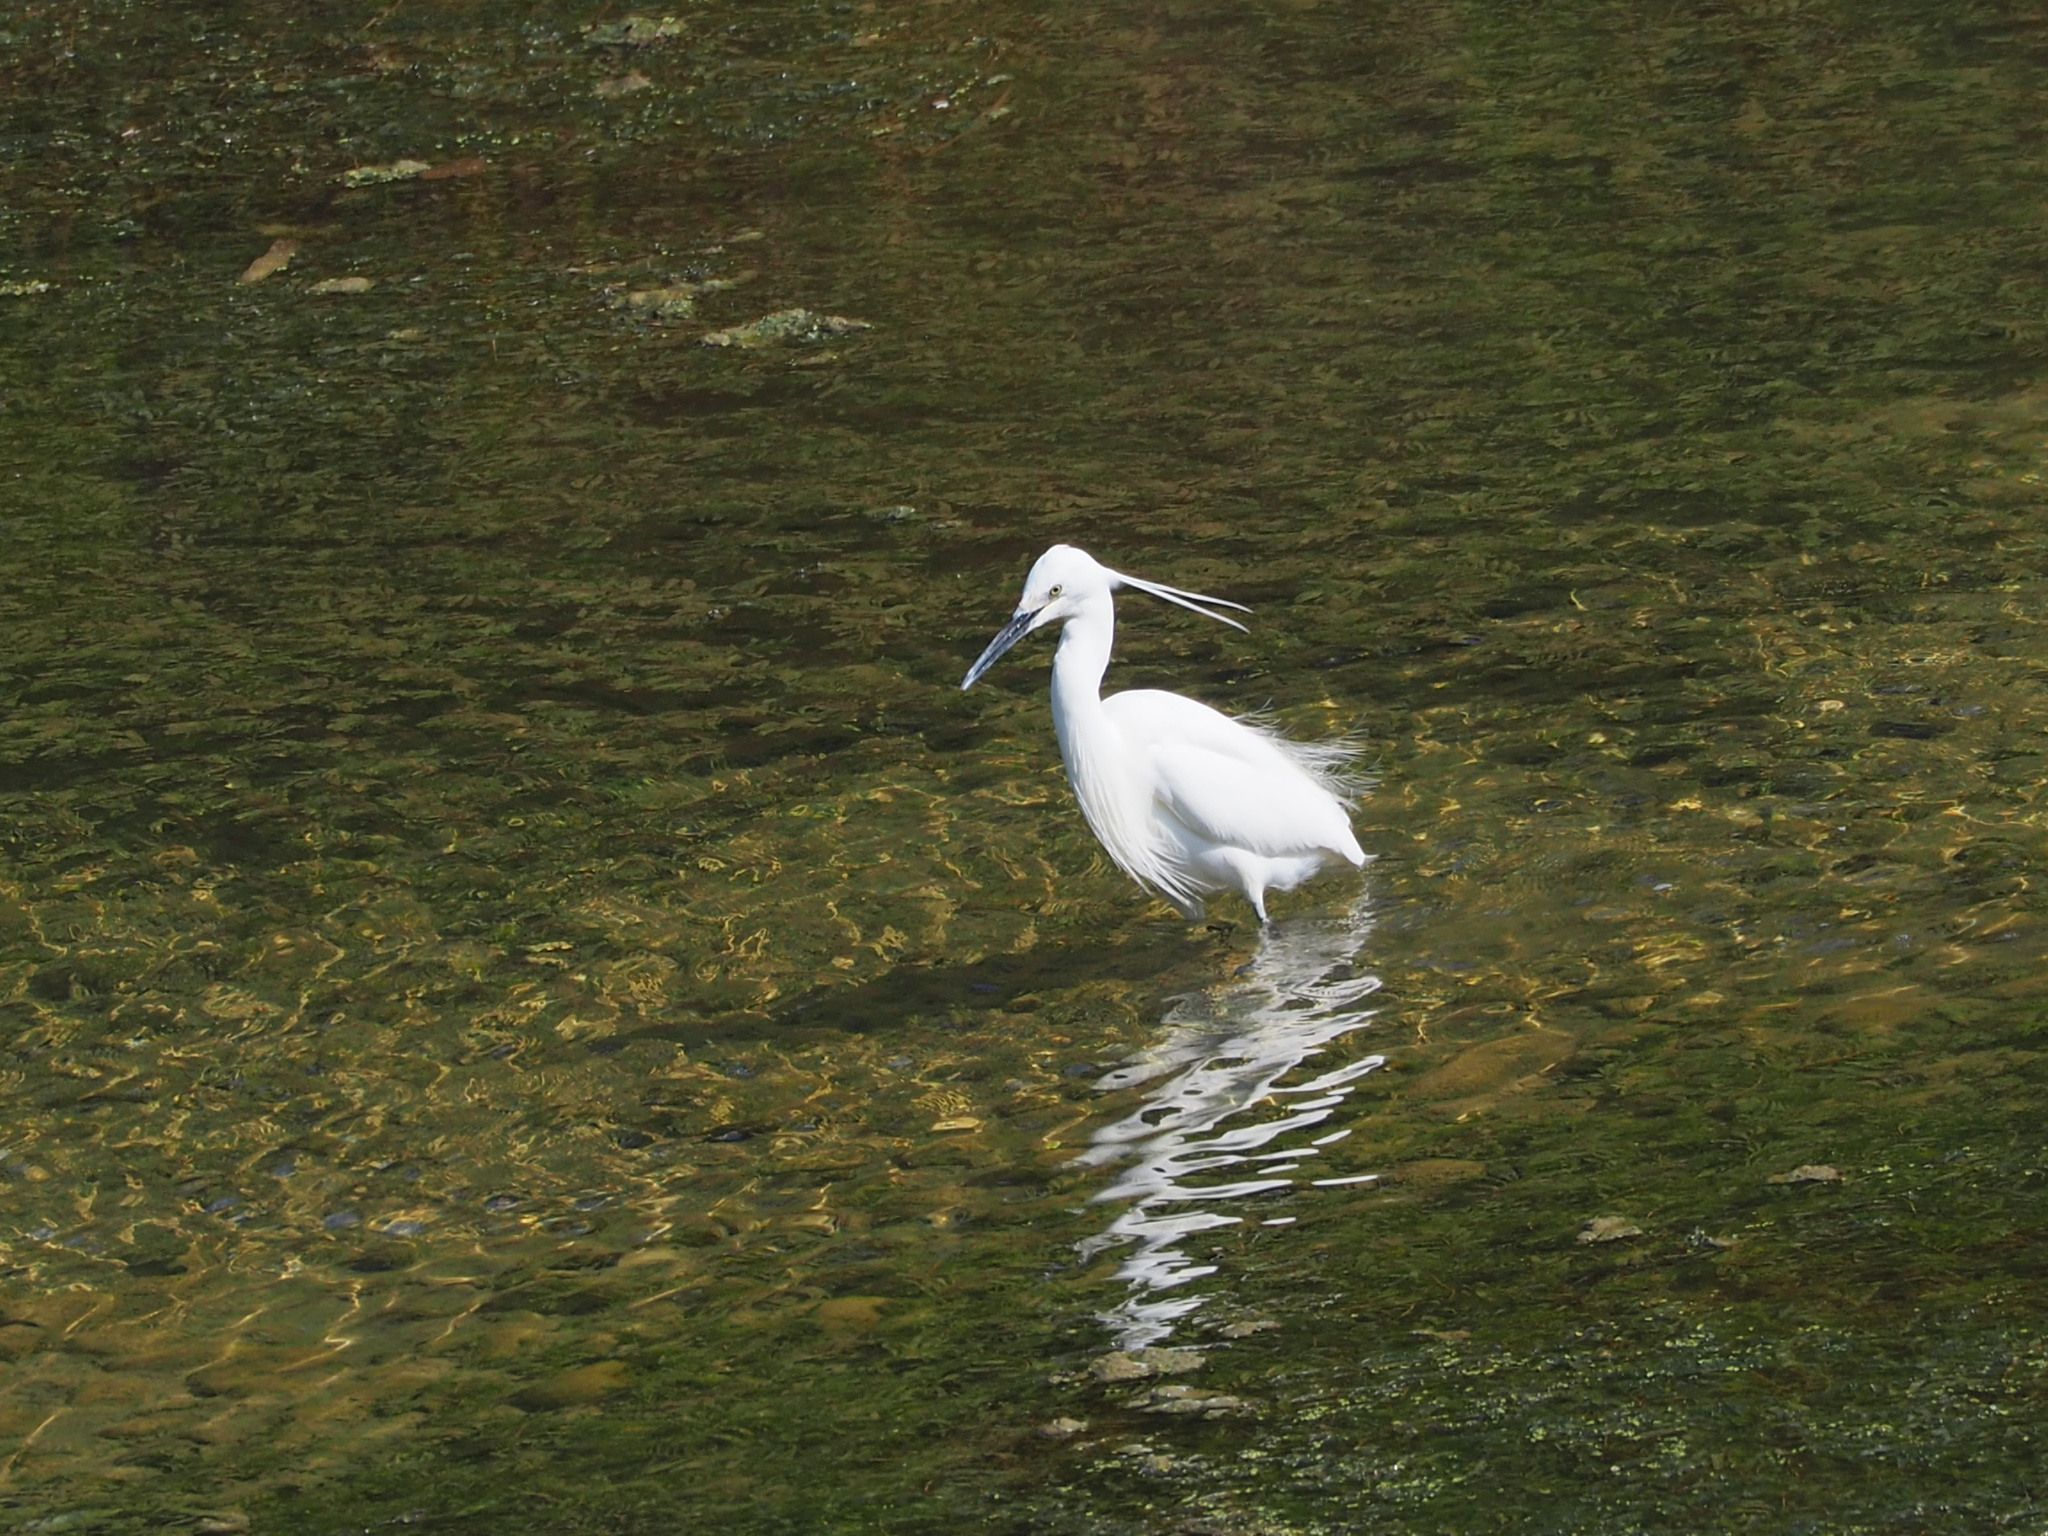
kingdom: Animalia
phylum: Chordata
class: Aves
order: Pelecaniformes
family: Ardeidae
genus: Egretta
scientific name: Egretta garzetta
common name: Little egret
